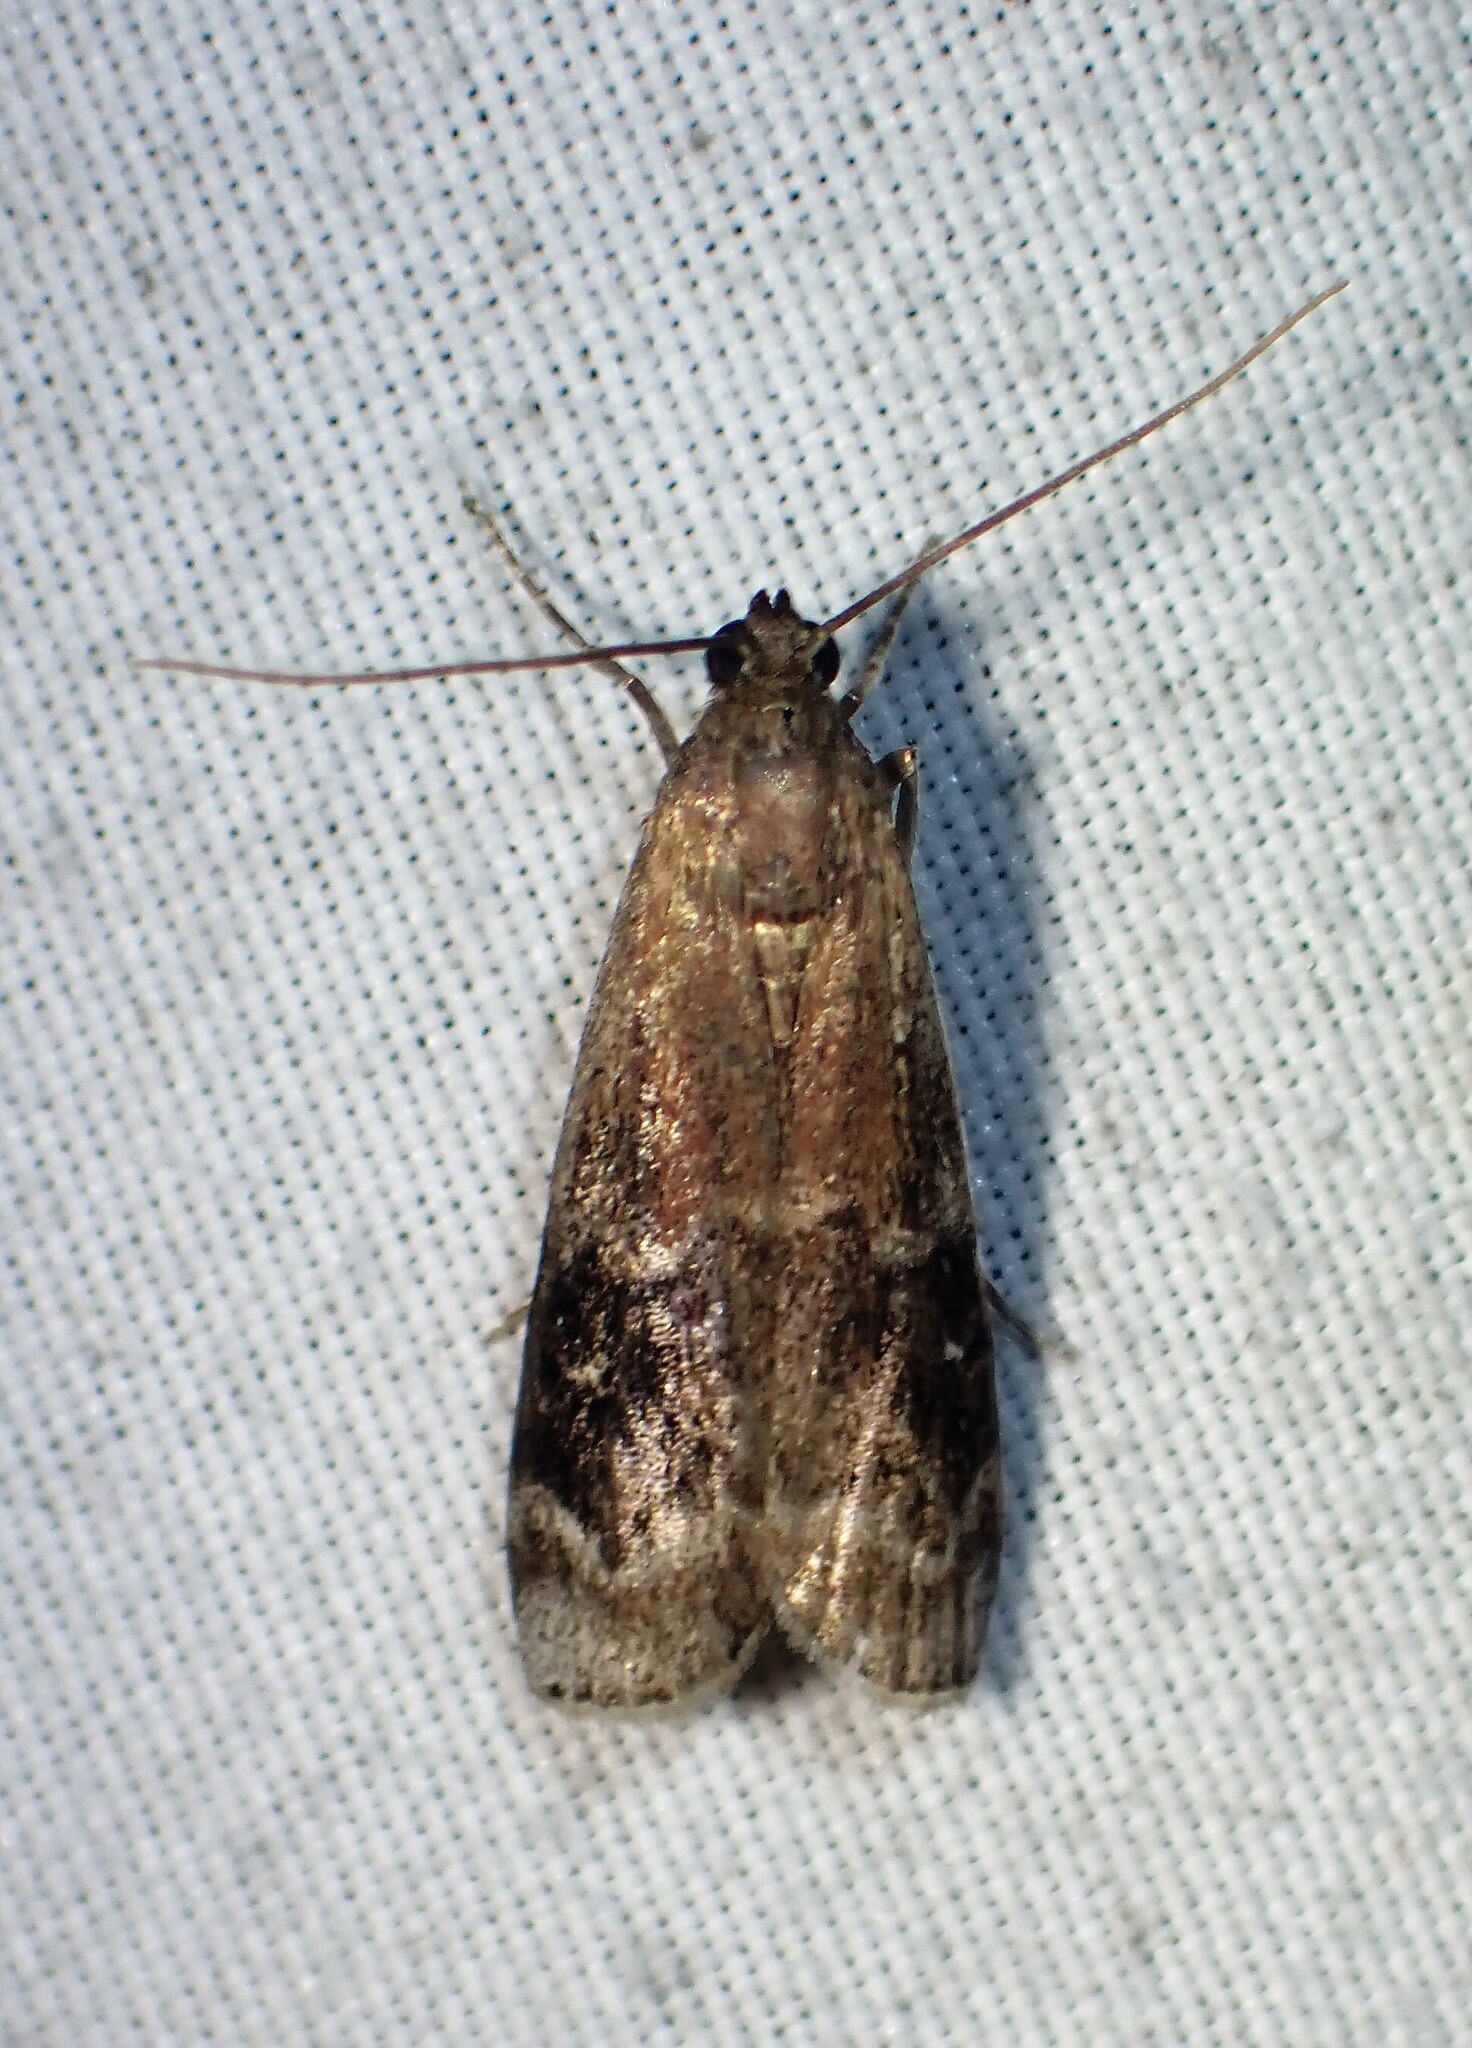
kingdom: Animalia
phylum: Arthropoda
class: Insecta
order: Lepidoptera
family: Pyralidae
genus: Euzophera
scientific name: Euzophera semifuneralis
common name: American plum borer moth
